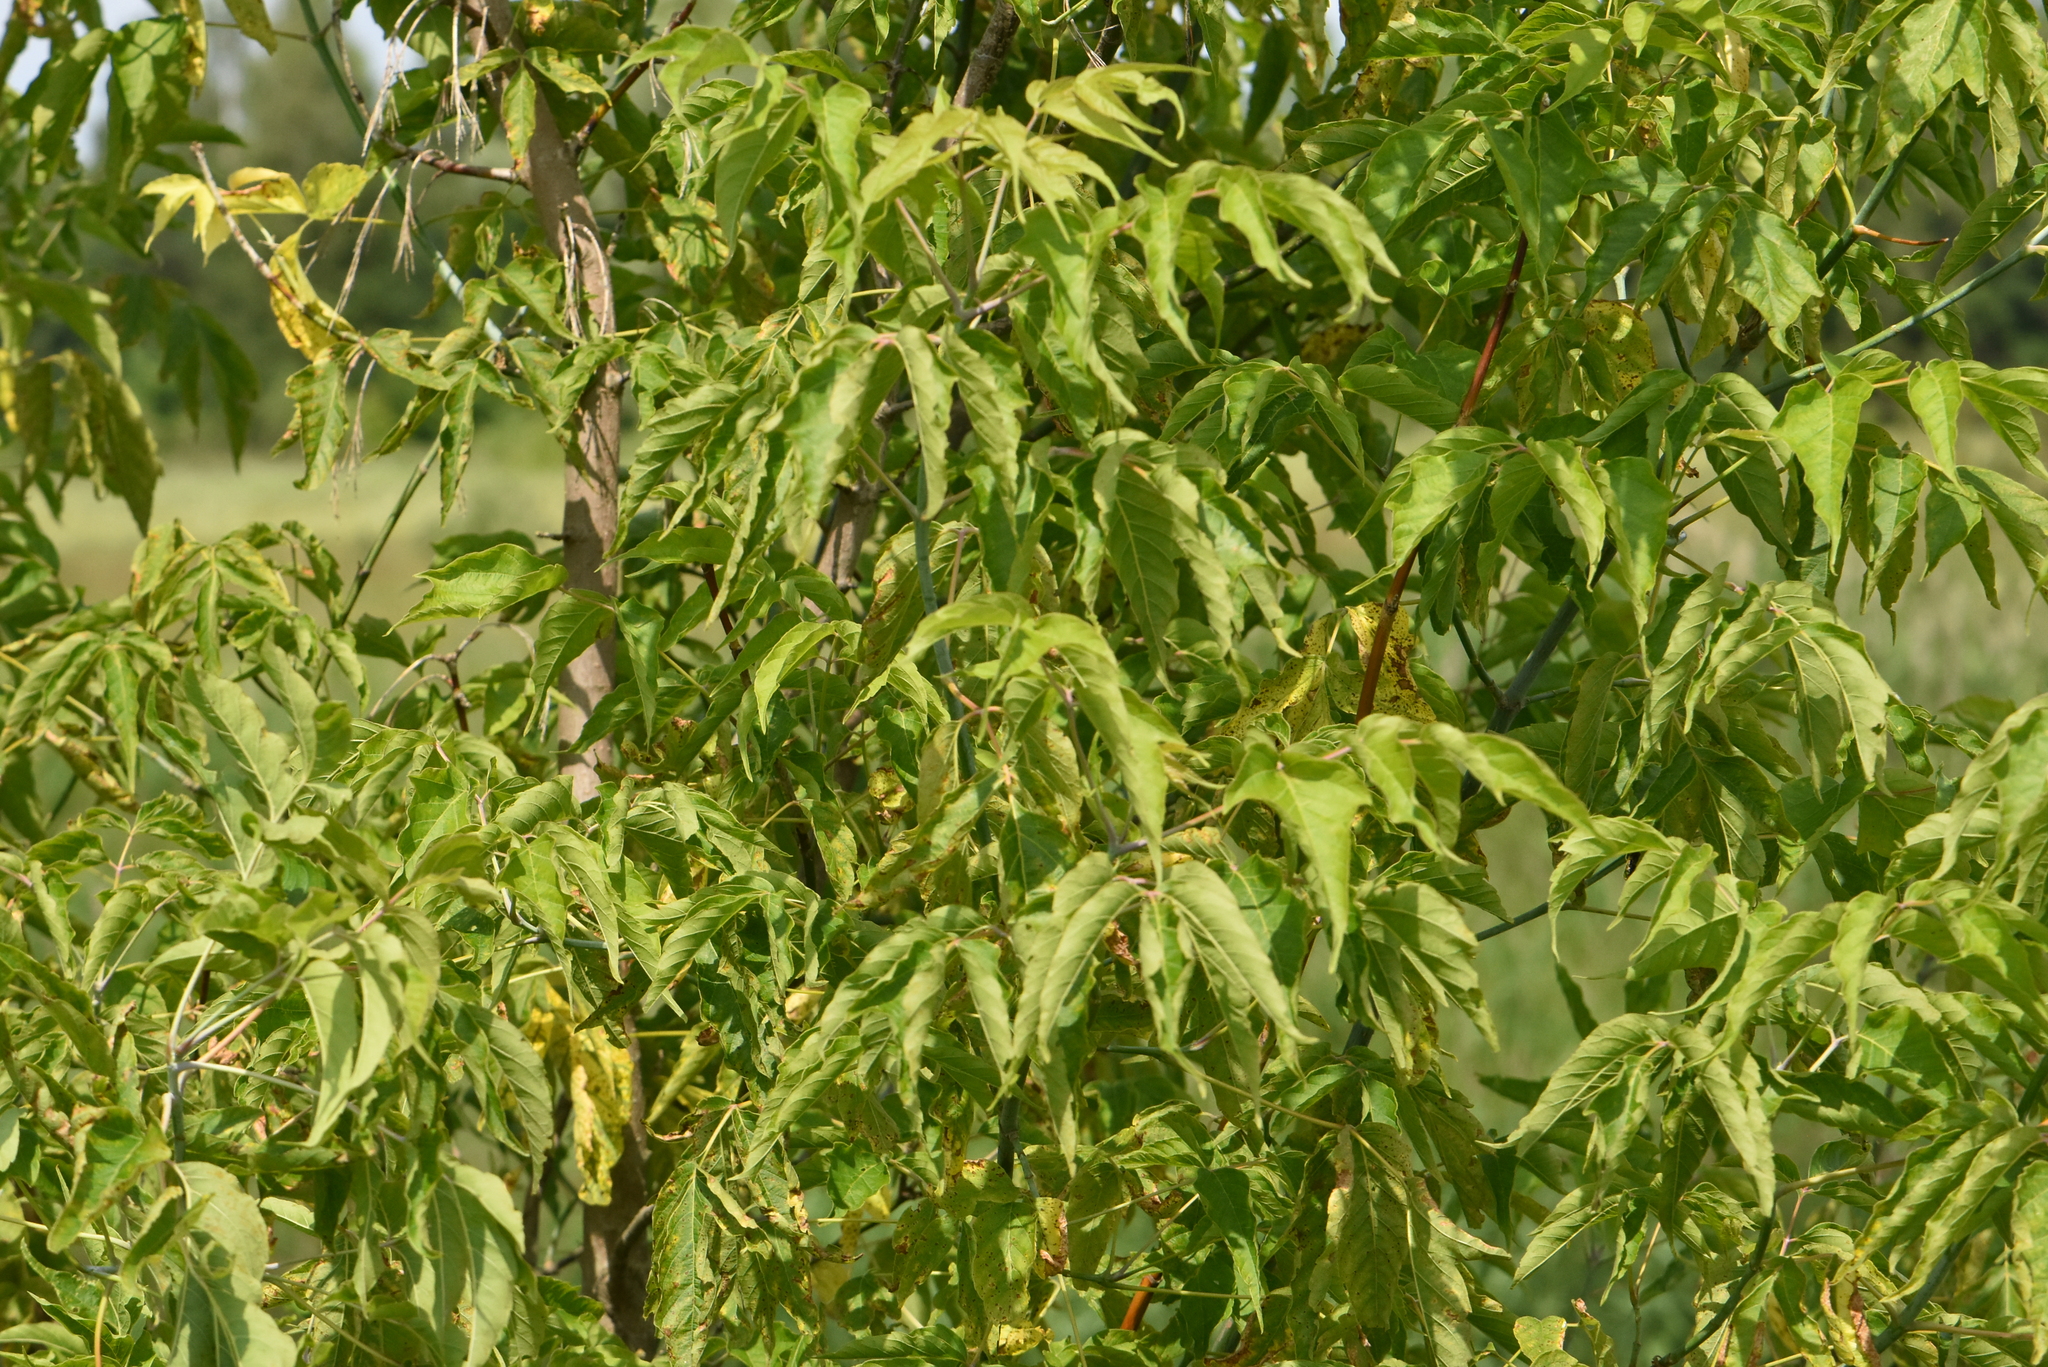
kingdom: Plantae
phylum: Tracheophyta
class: Magnoliopsida
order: Sapindales
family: Sapindaceae
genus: Acer
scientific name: Acer negundo
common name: Ashleaf maple
